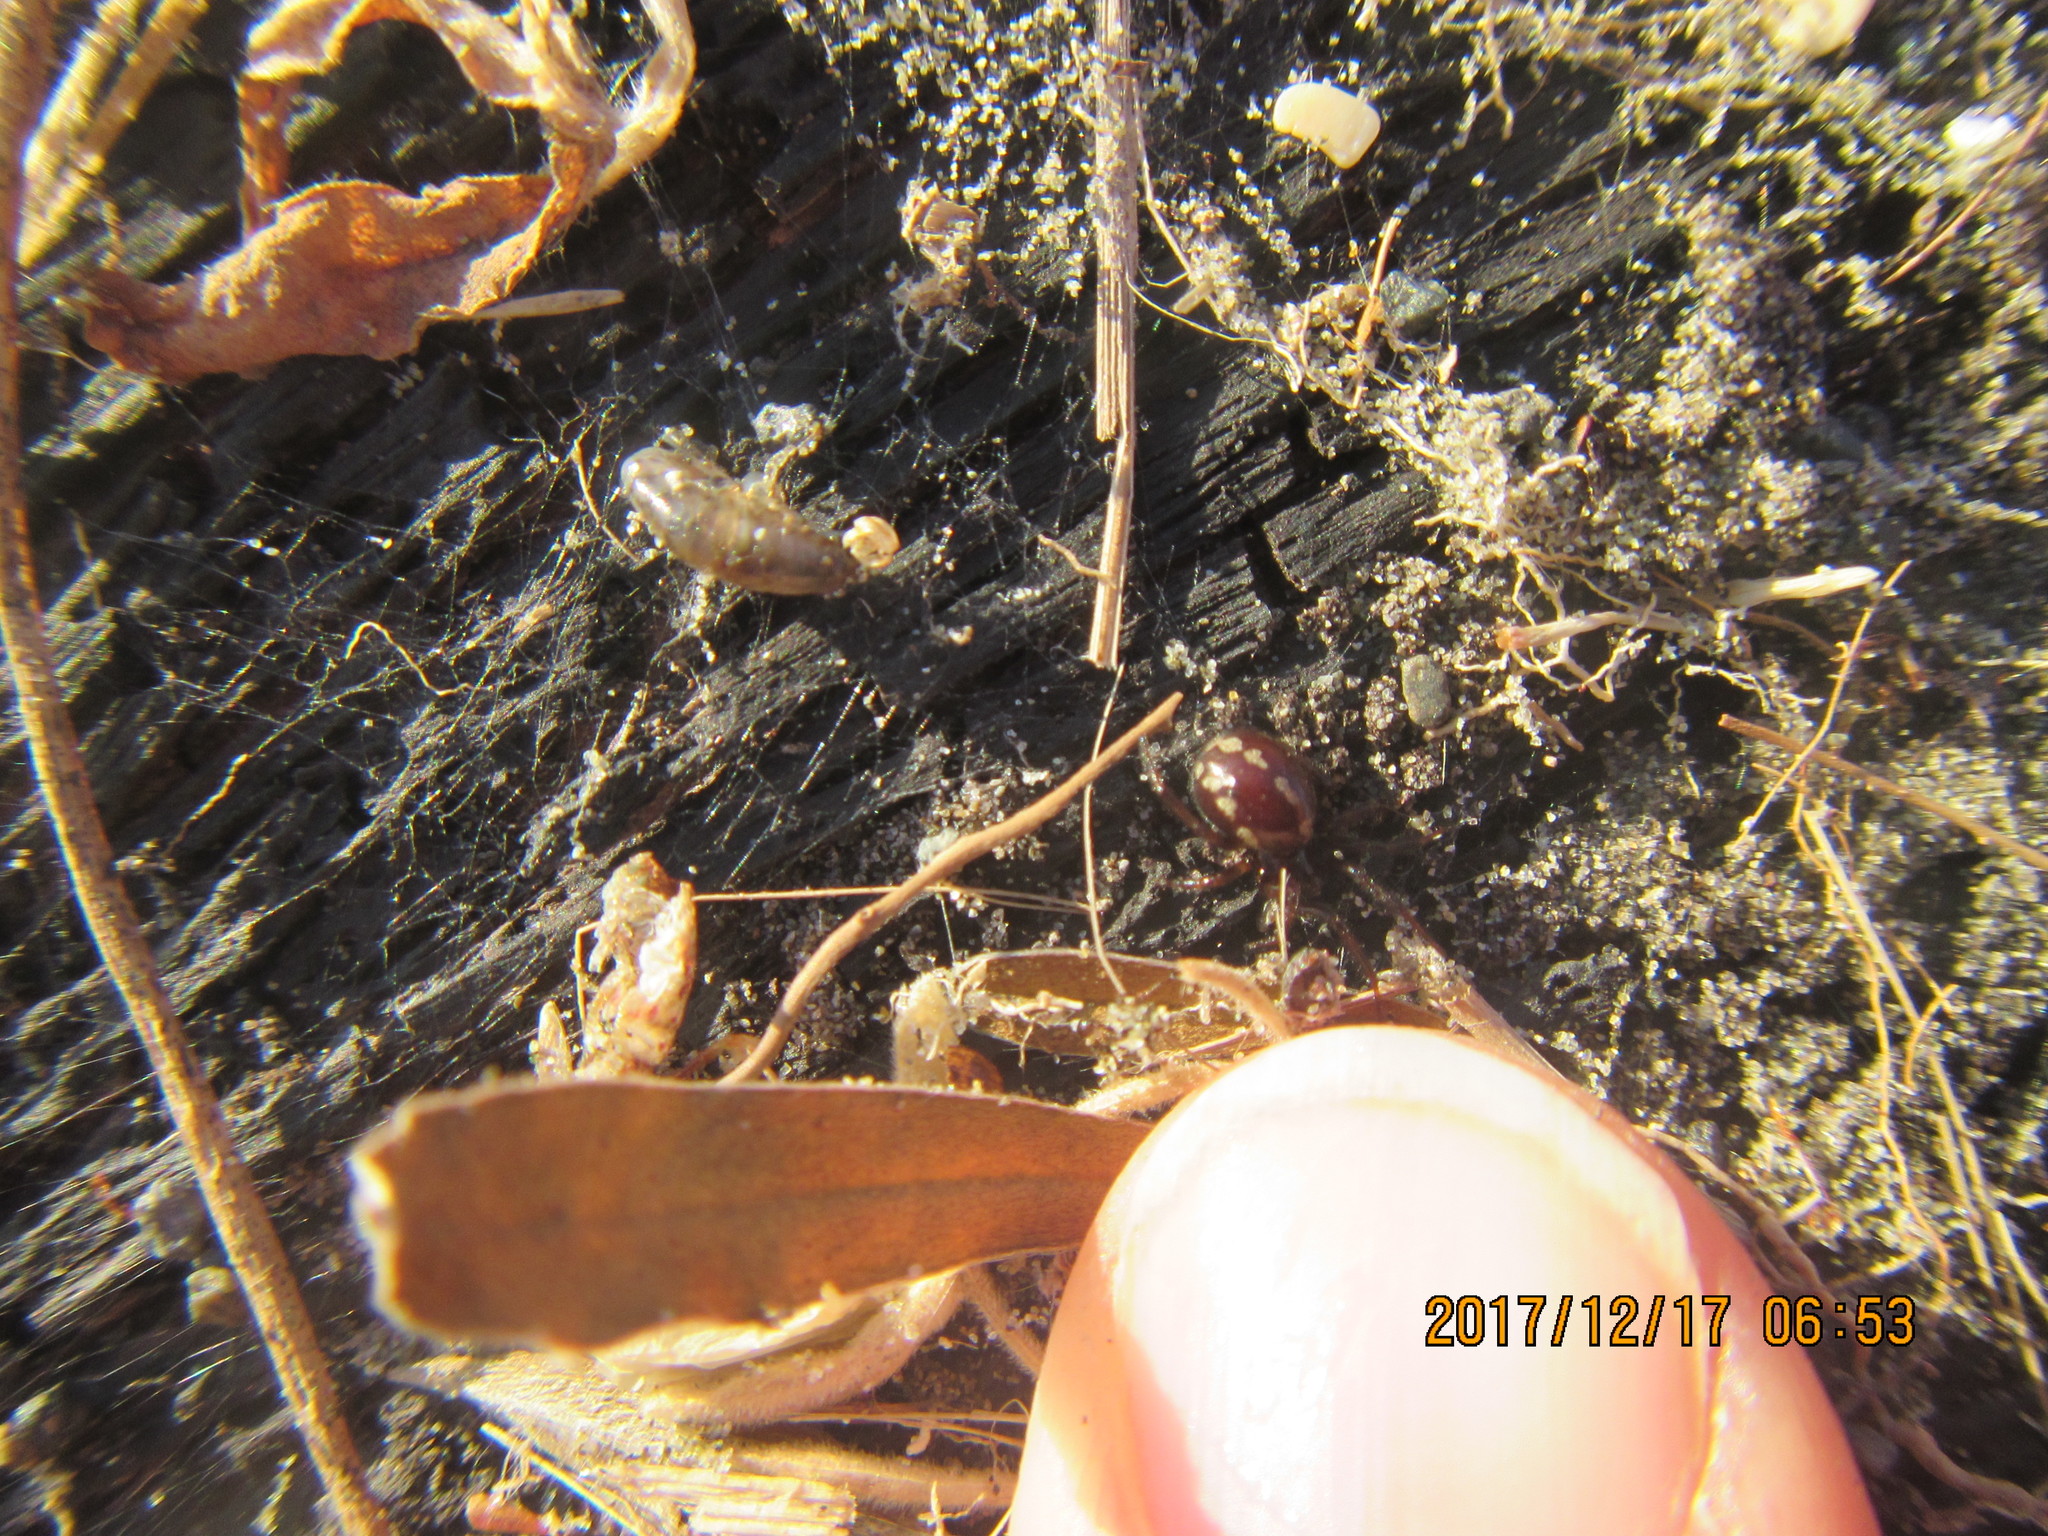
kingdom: Animalia
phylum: Arthropoda
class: Arachnida
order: Araneae
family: Theridiidae
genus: Steatoda
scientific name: Steatoda lepida
